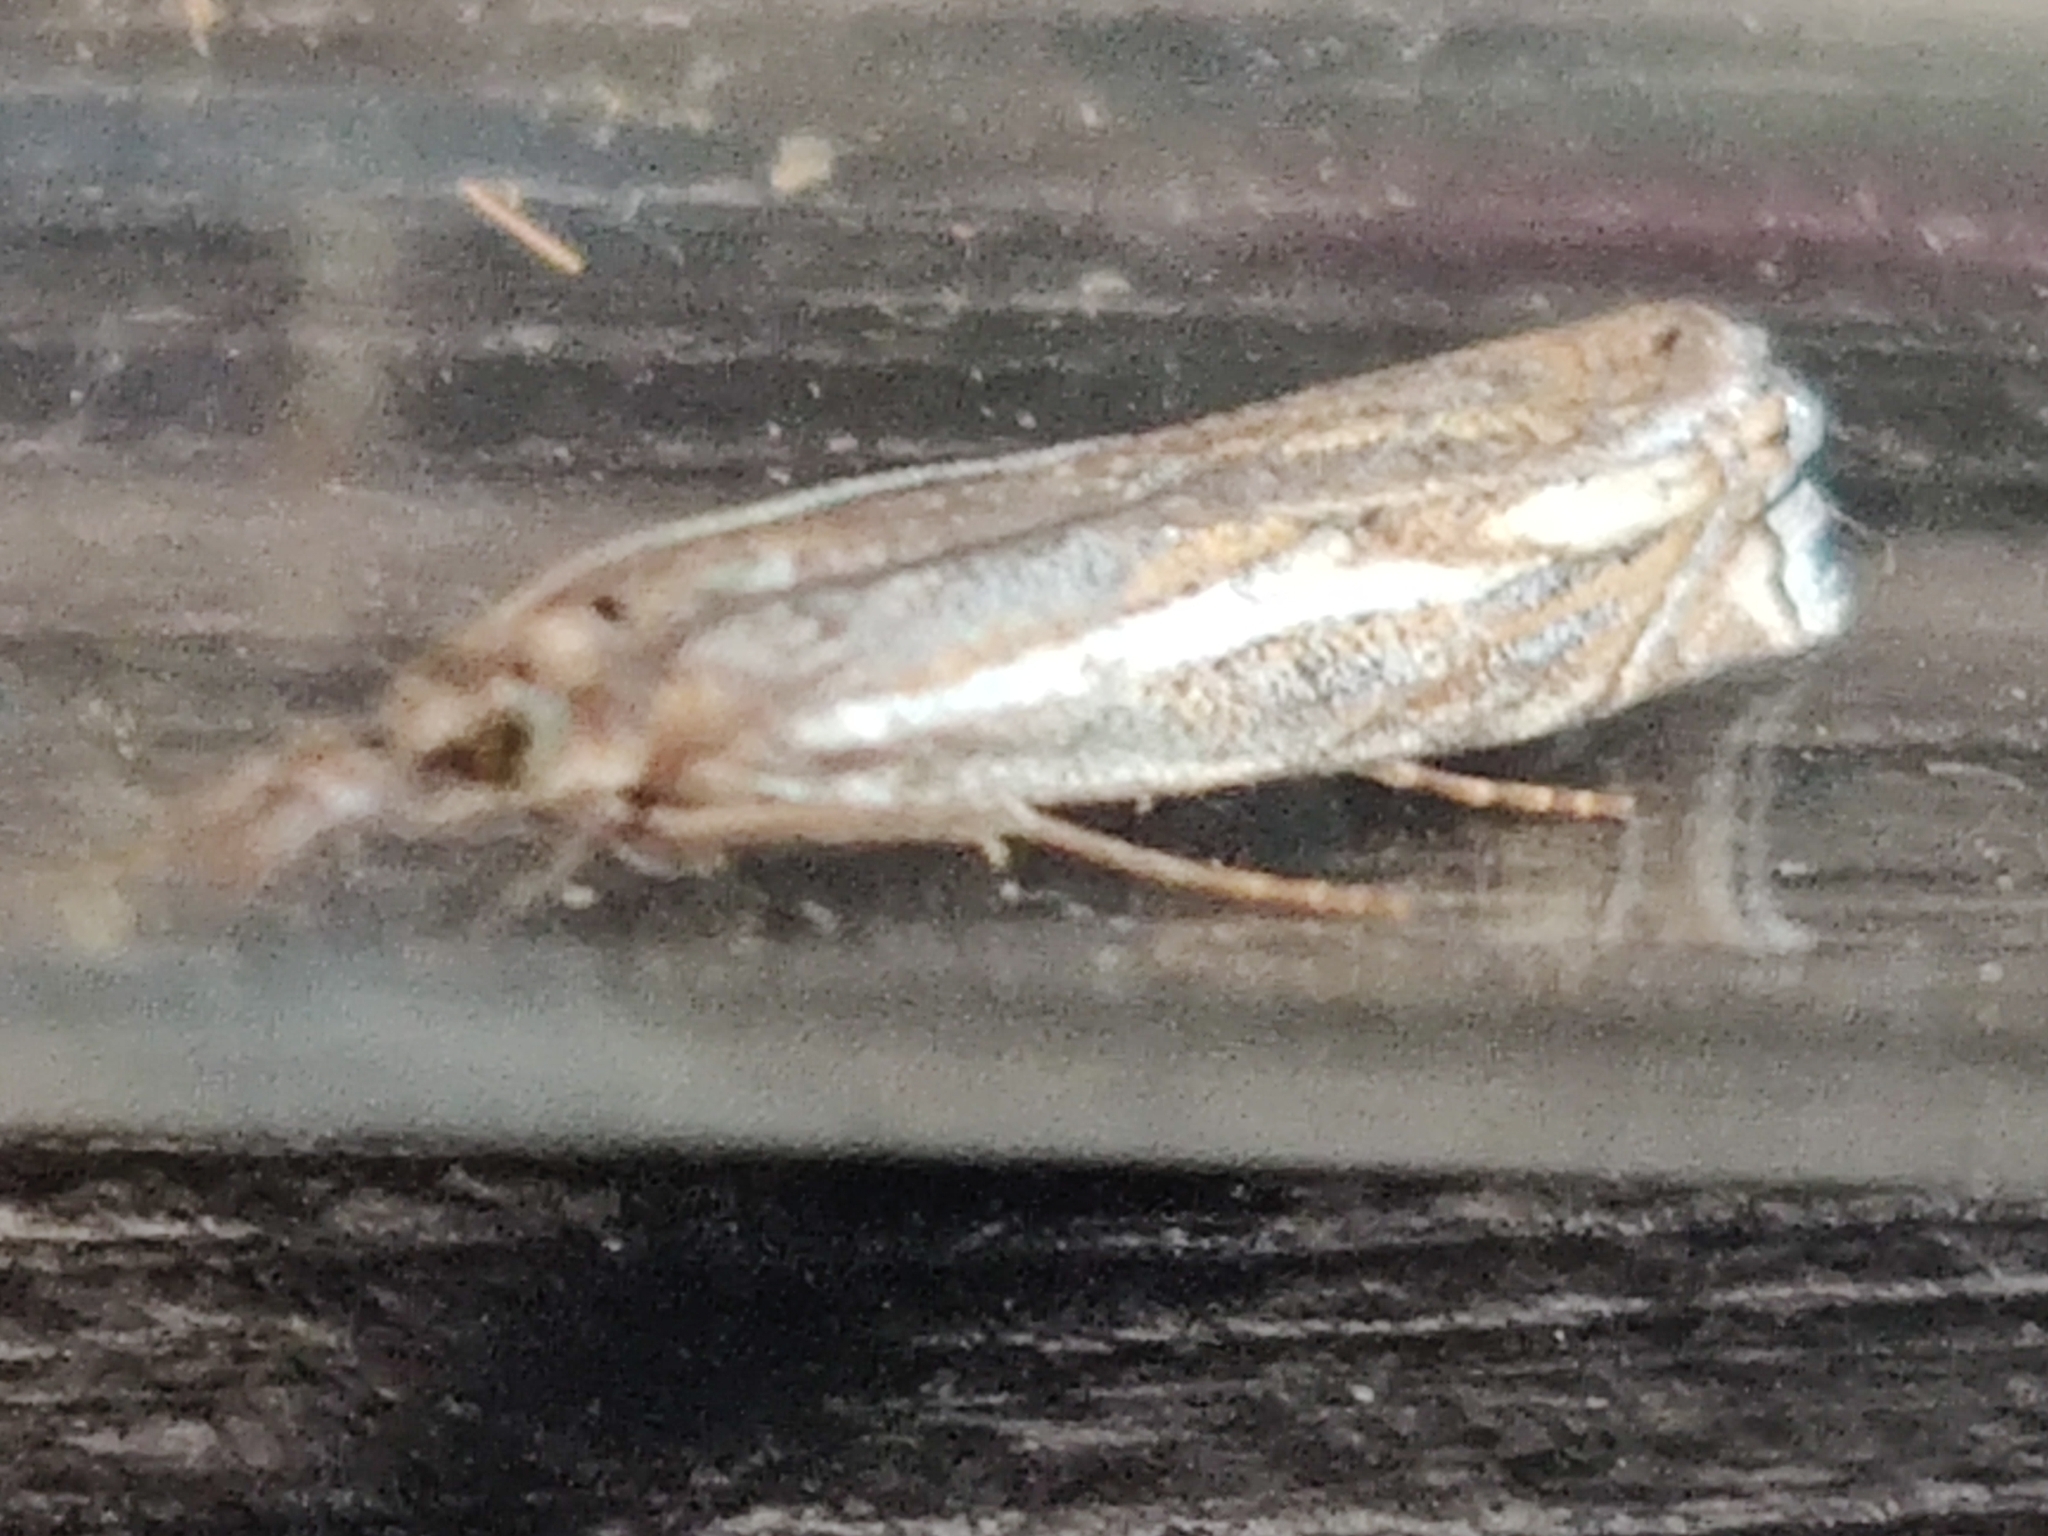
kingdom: Animalia
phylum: Arthropoda
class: Insecta
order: Lepidoptera
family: Crambidae
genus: Crambus
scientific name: Crambus nemorella
